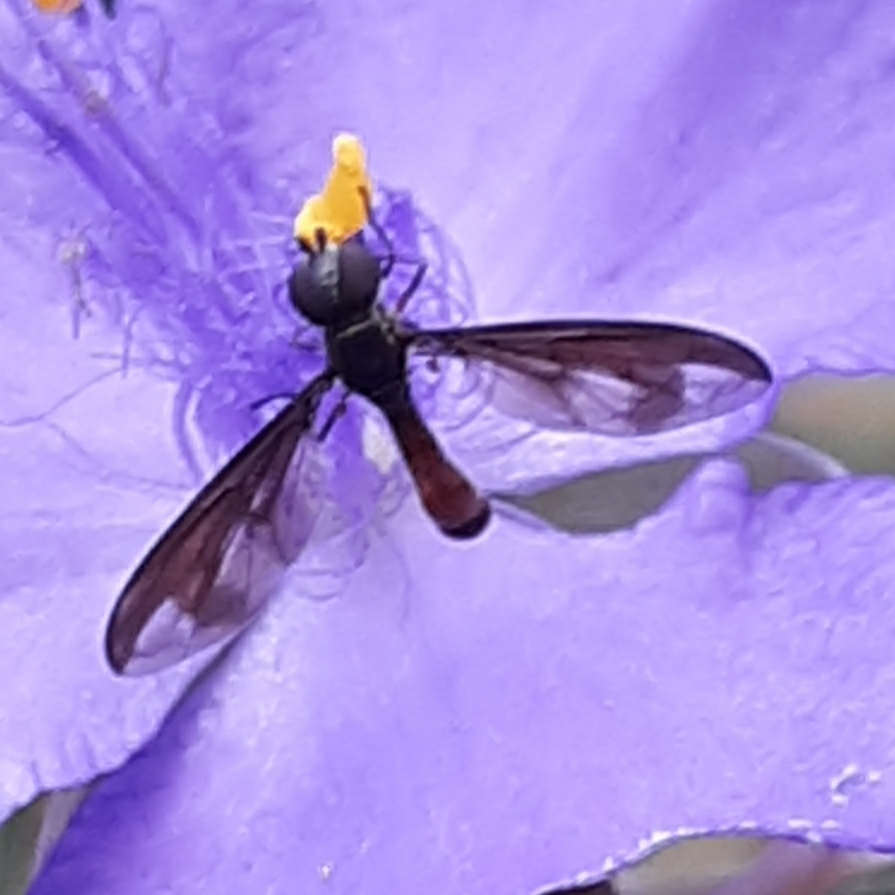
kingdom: Animalia
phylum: Arthropoda
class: Insecta
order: Diptera
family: Syrphidae
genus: Ocyptamus
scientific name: Ocyptamus fuscipennis
